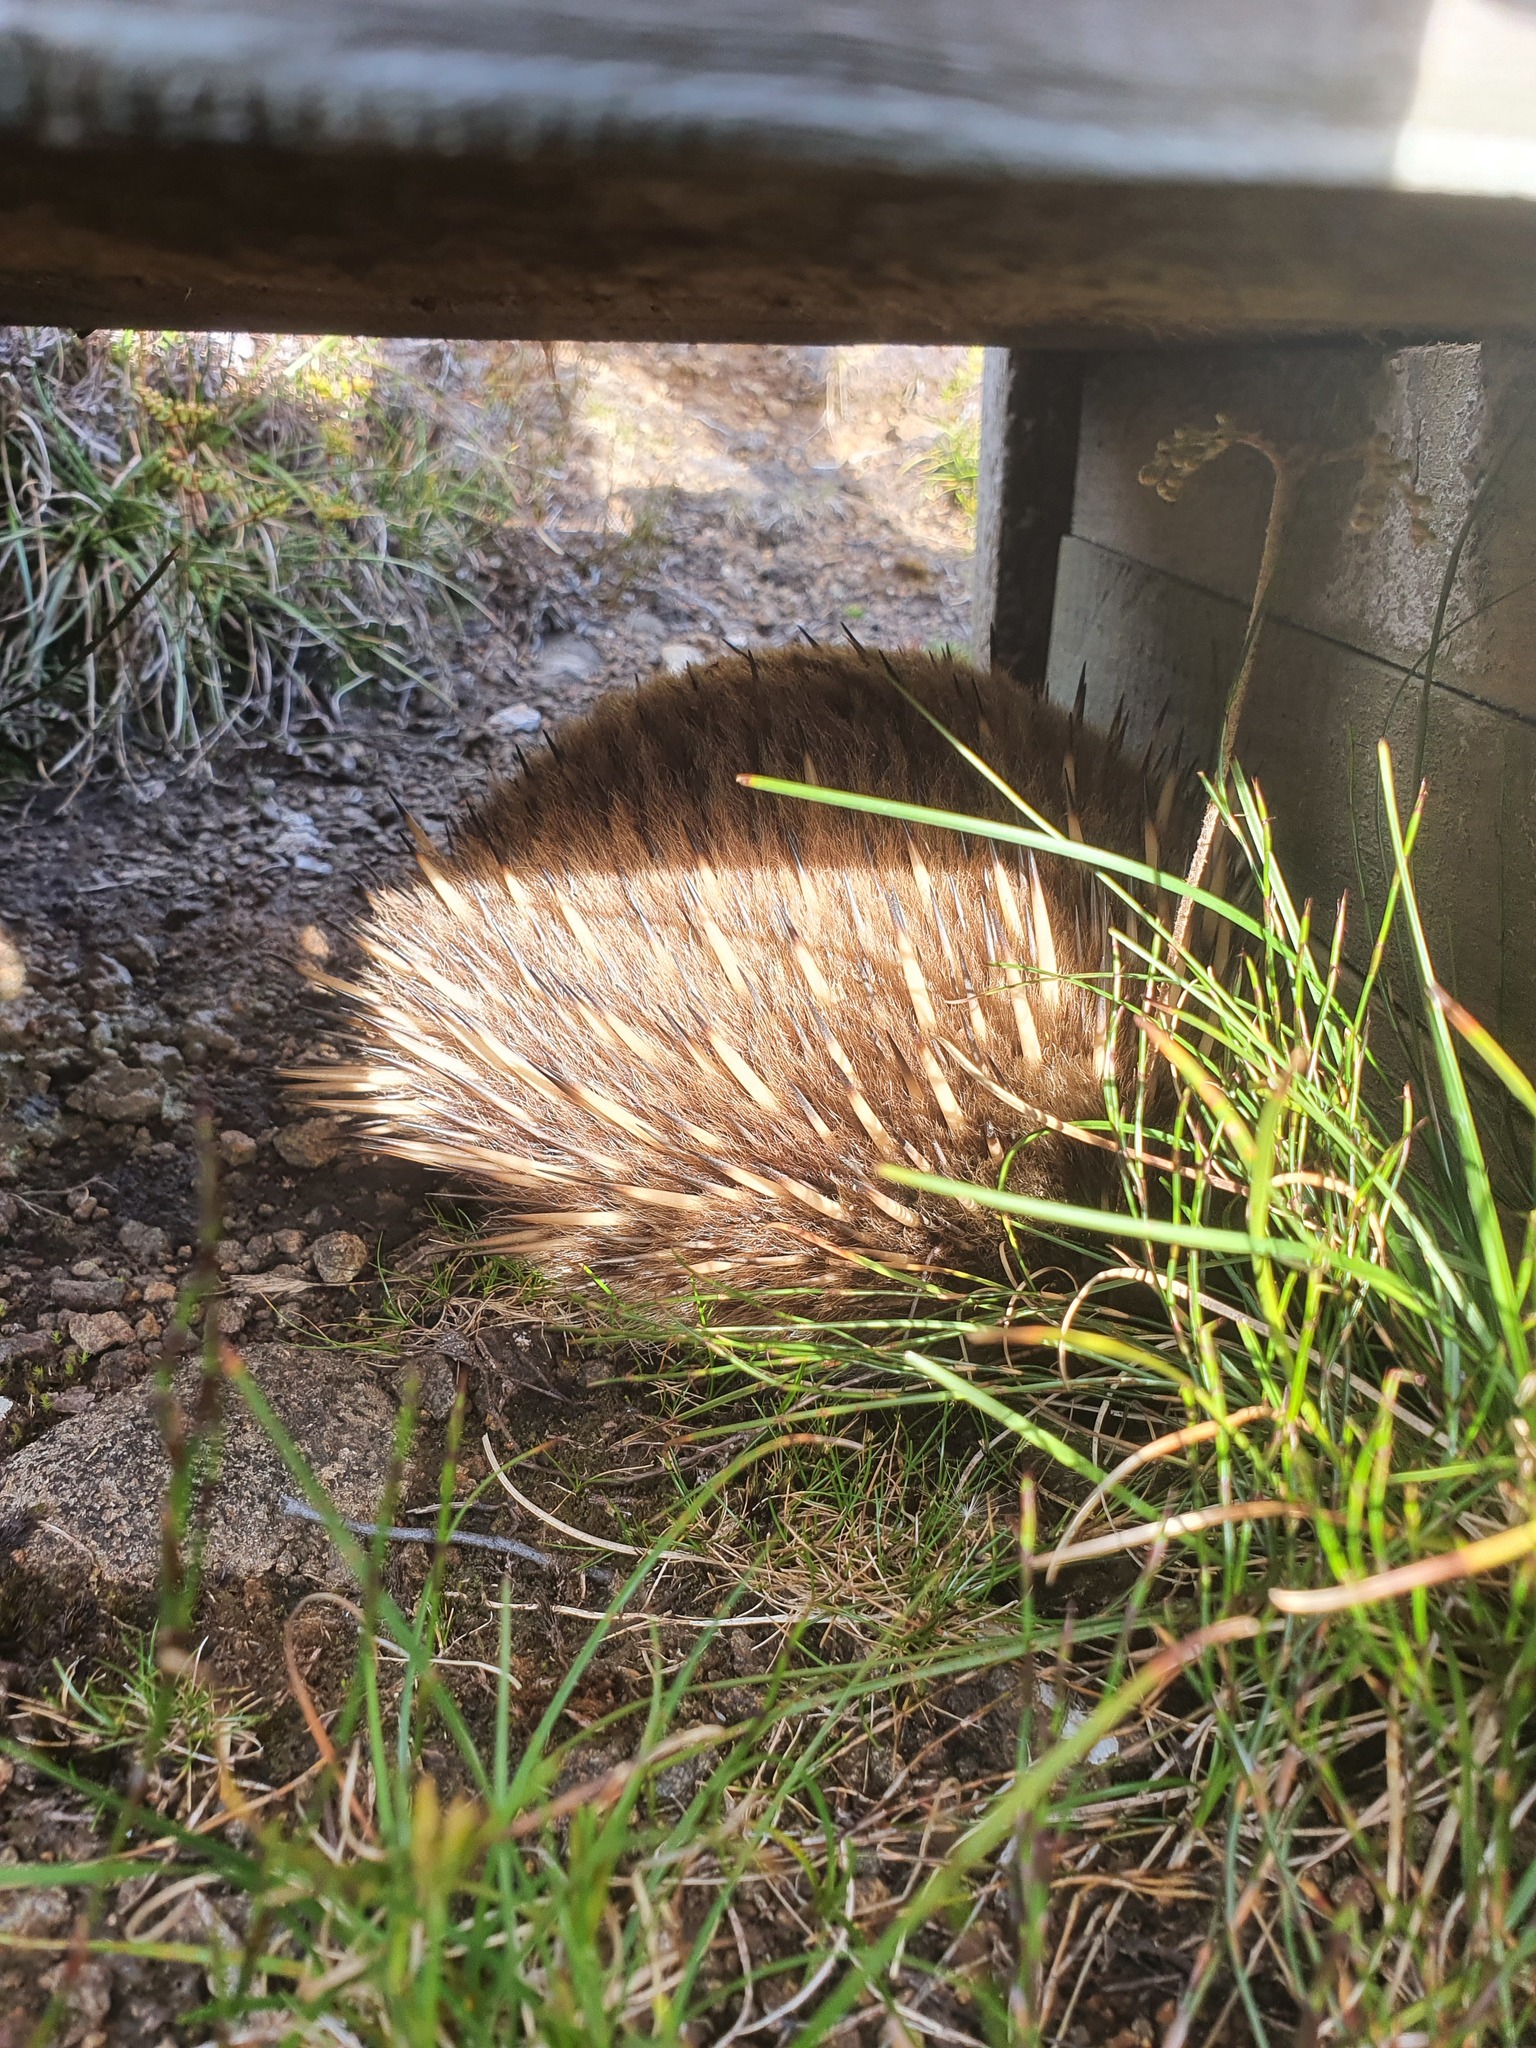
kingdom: Animalia
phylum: Chordata
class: Mammalia
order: Monotremata
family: Tachyglossidae
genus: Tachyglossus
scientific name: Tachyglossus aculeatus
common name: Short-beaked echidna
